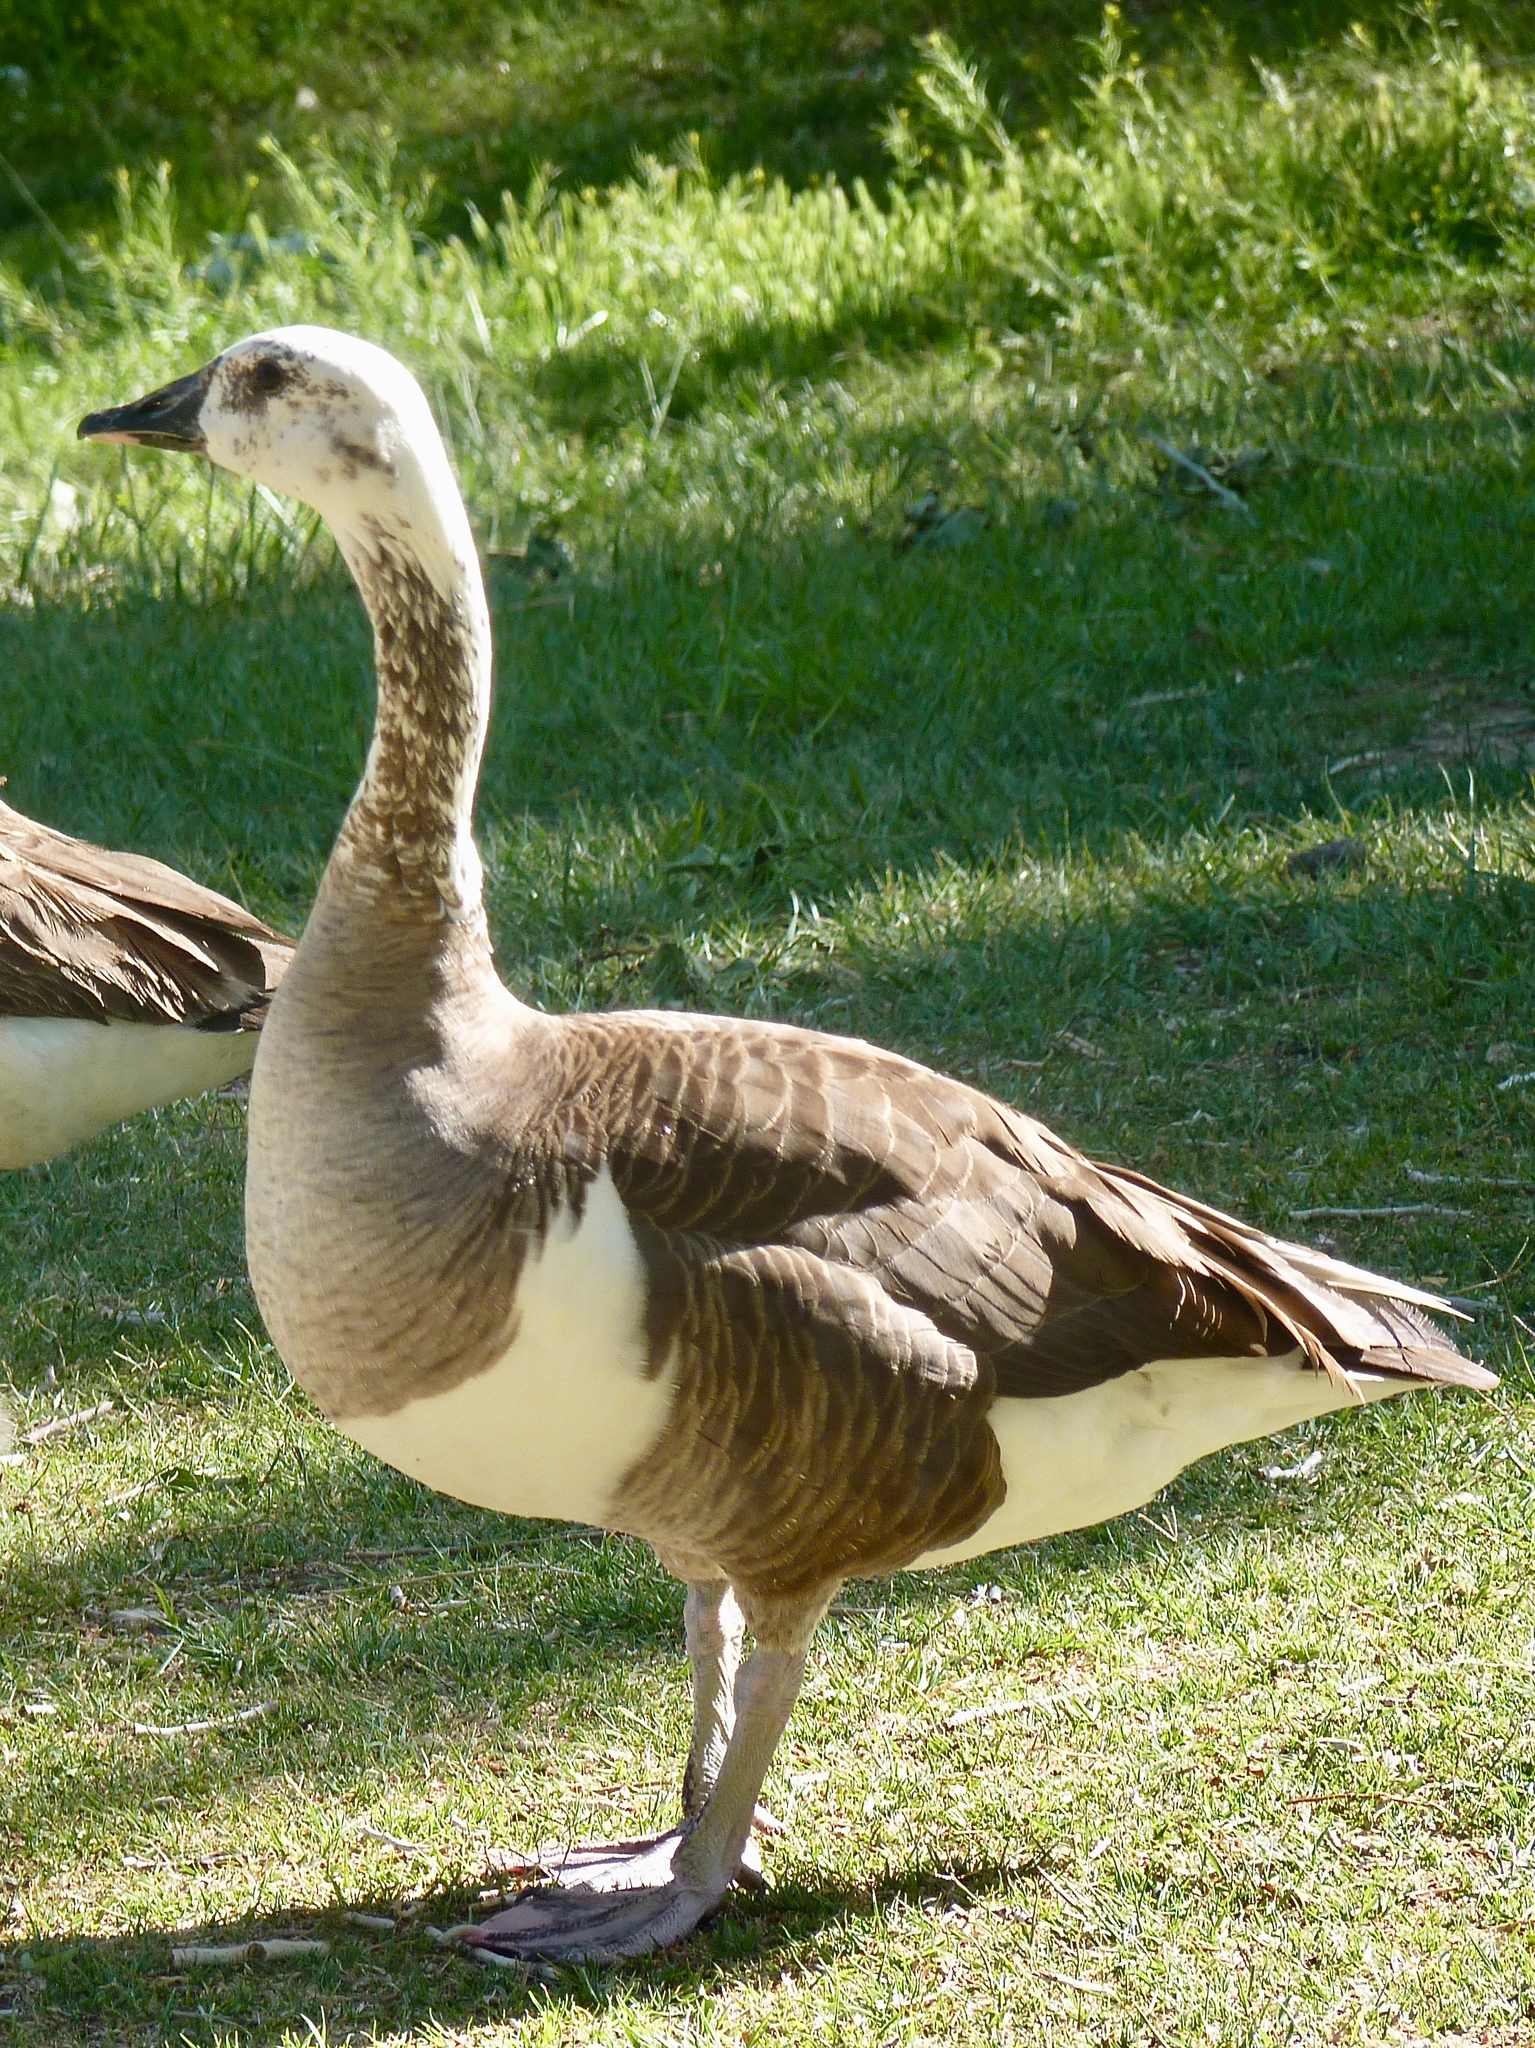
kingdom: Animalia
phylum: Chordata
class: Aves
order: Anseriformes
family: Anatidae
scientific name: Anatidae
